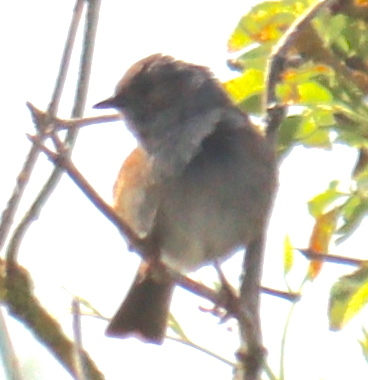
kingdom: Animalia
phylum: Chordata
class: Aves
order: Passeriformes
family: Prunellidae
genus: Prunella
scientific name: Prunella modularis
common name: Dunnock
